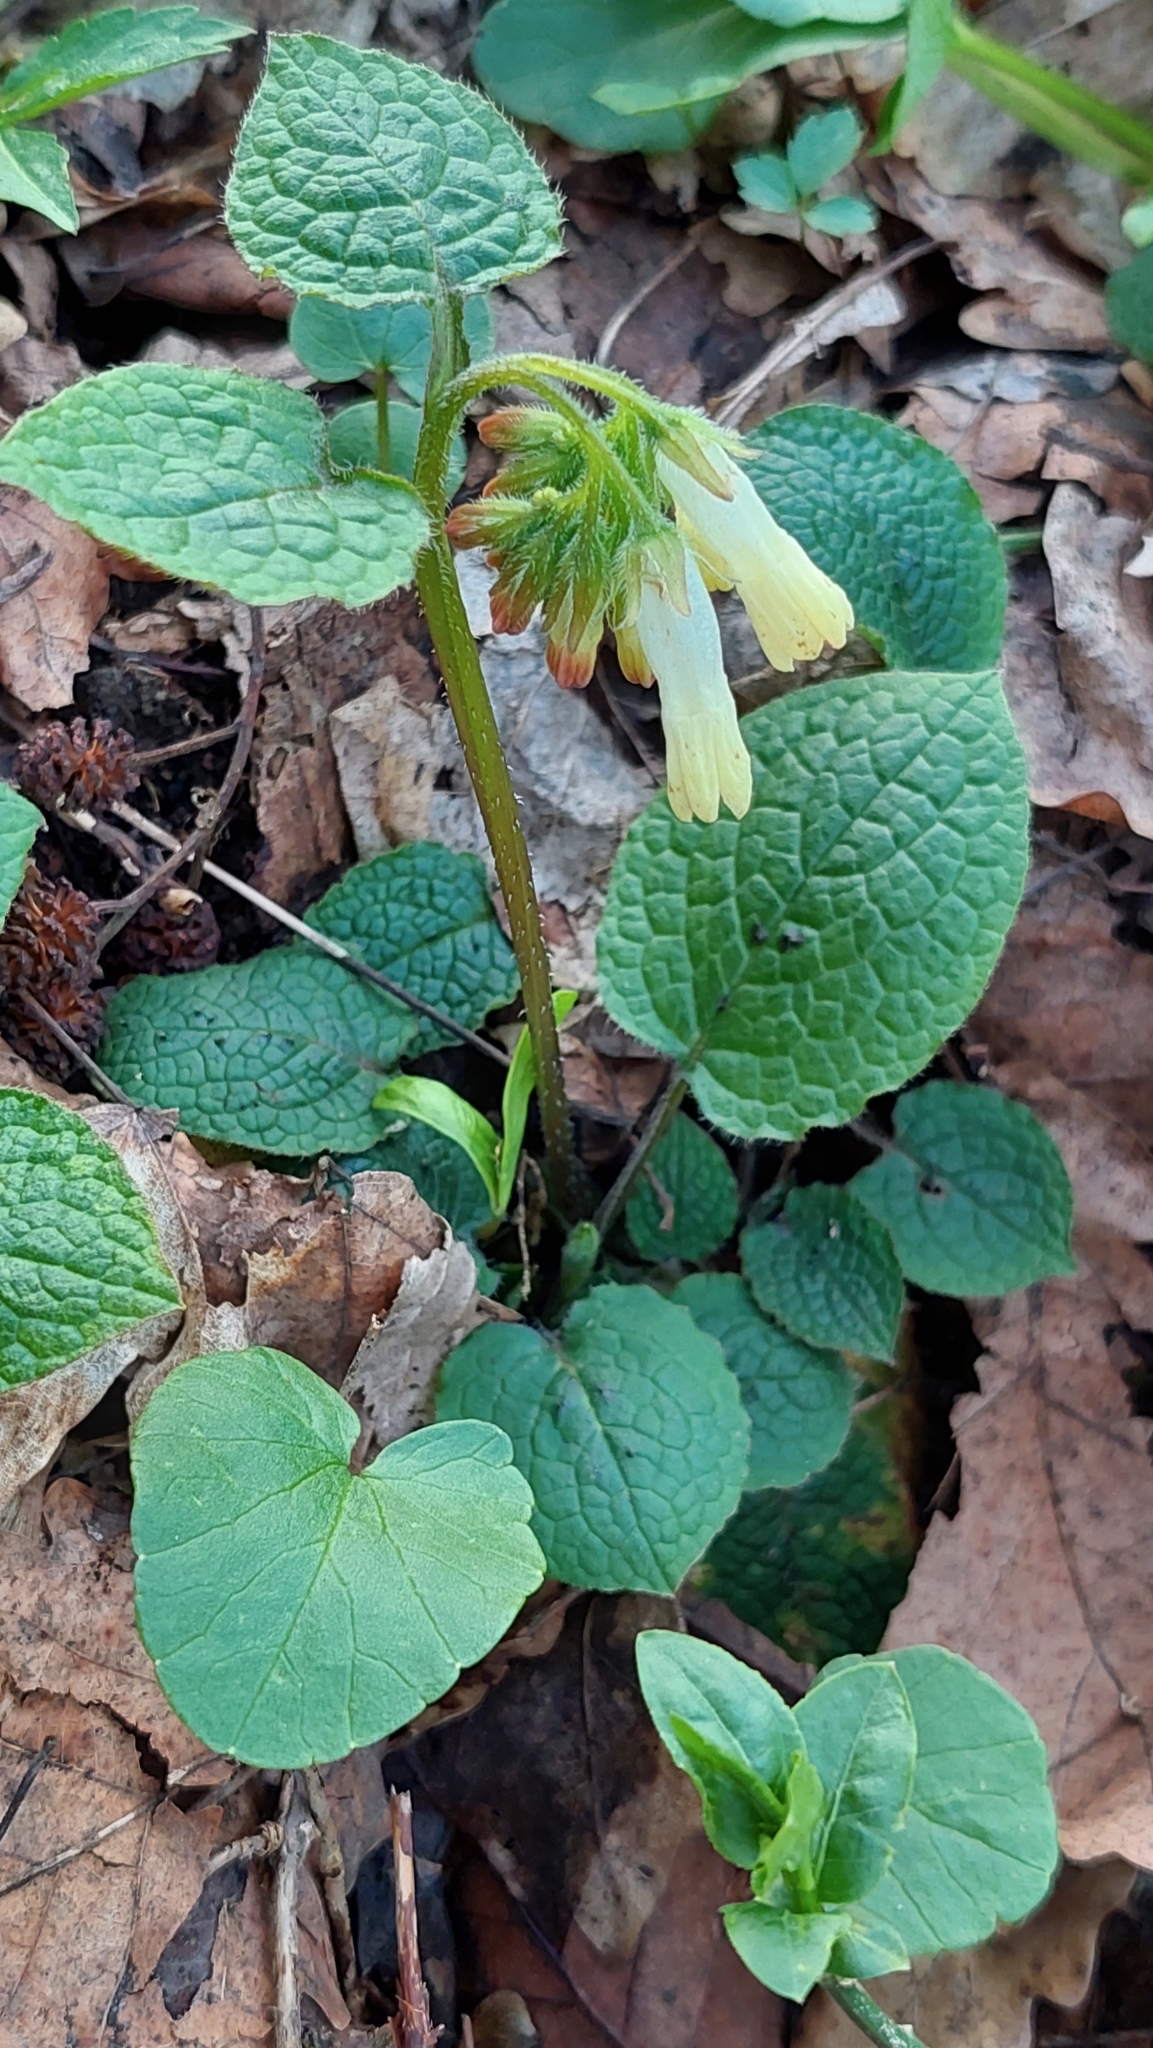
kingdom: Plantae
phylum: Tracheophyta
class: Magnoliopsida
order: Boraginales
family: Boraginaceae
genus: Symphytum
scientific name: Symphytum grandiflorum
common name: Creeping comfrey
